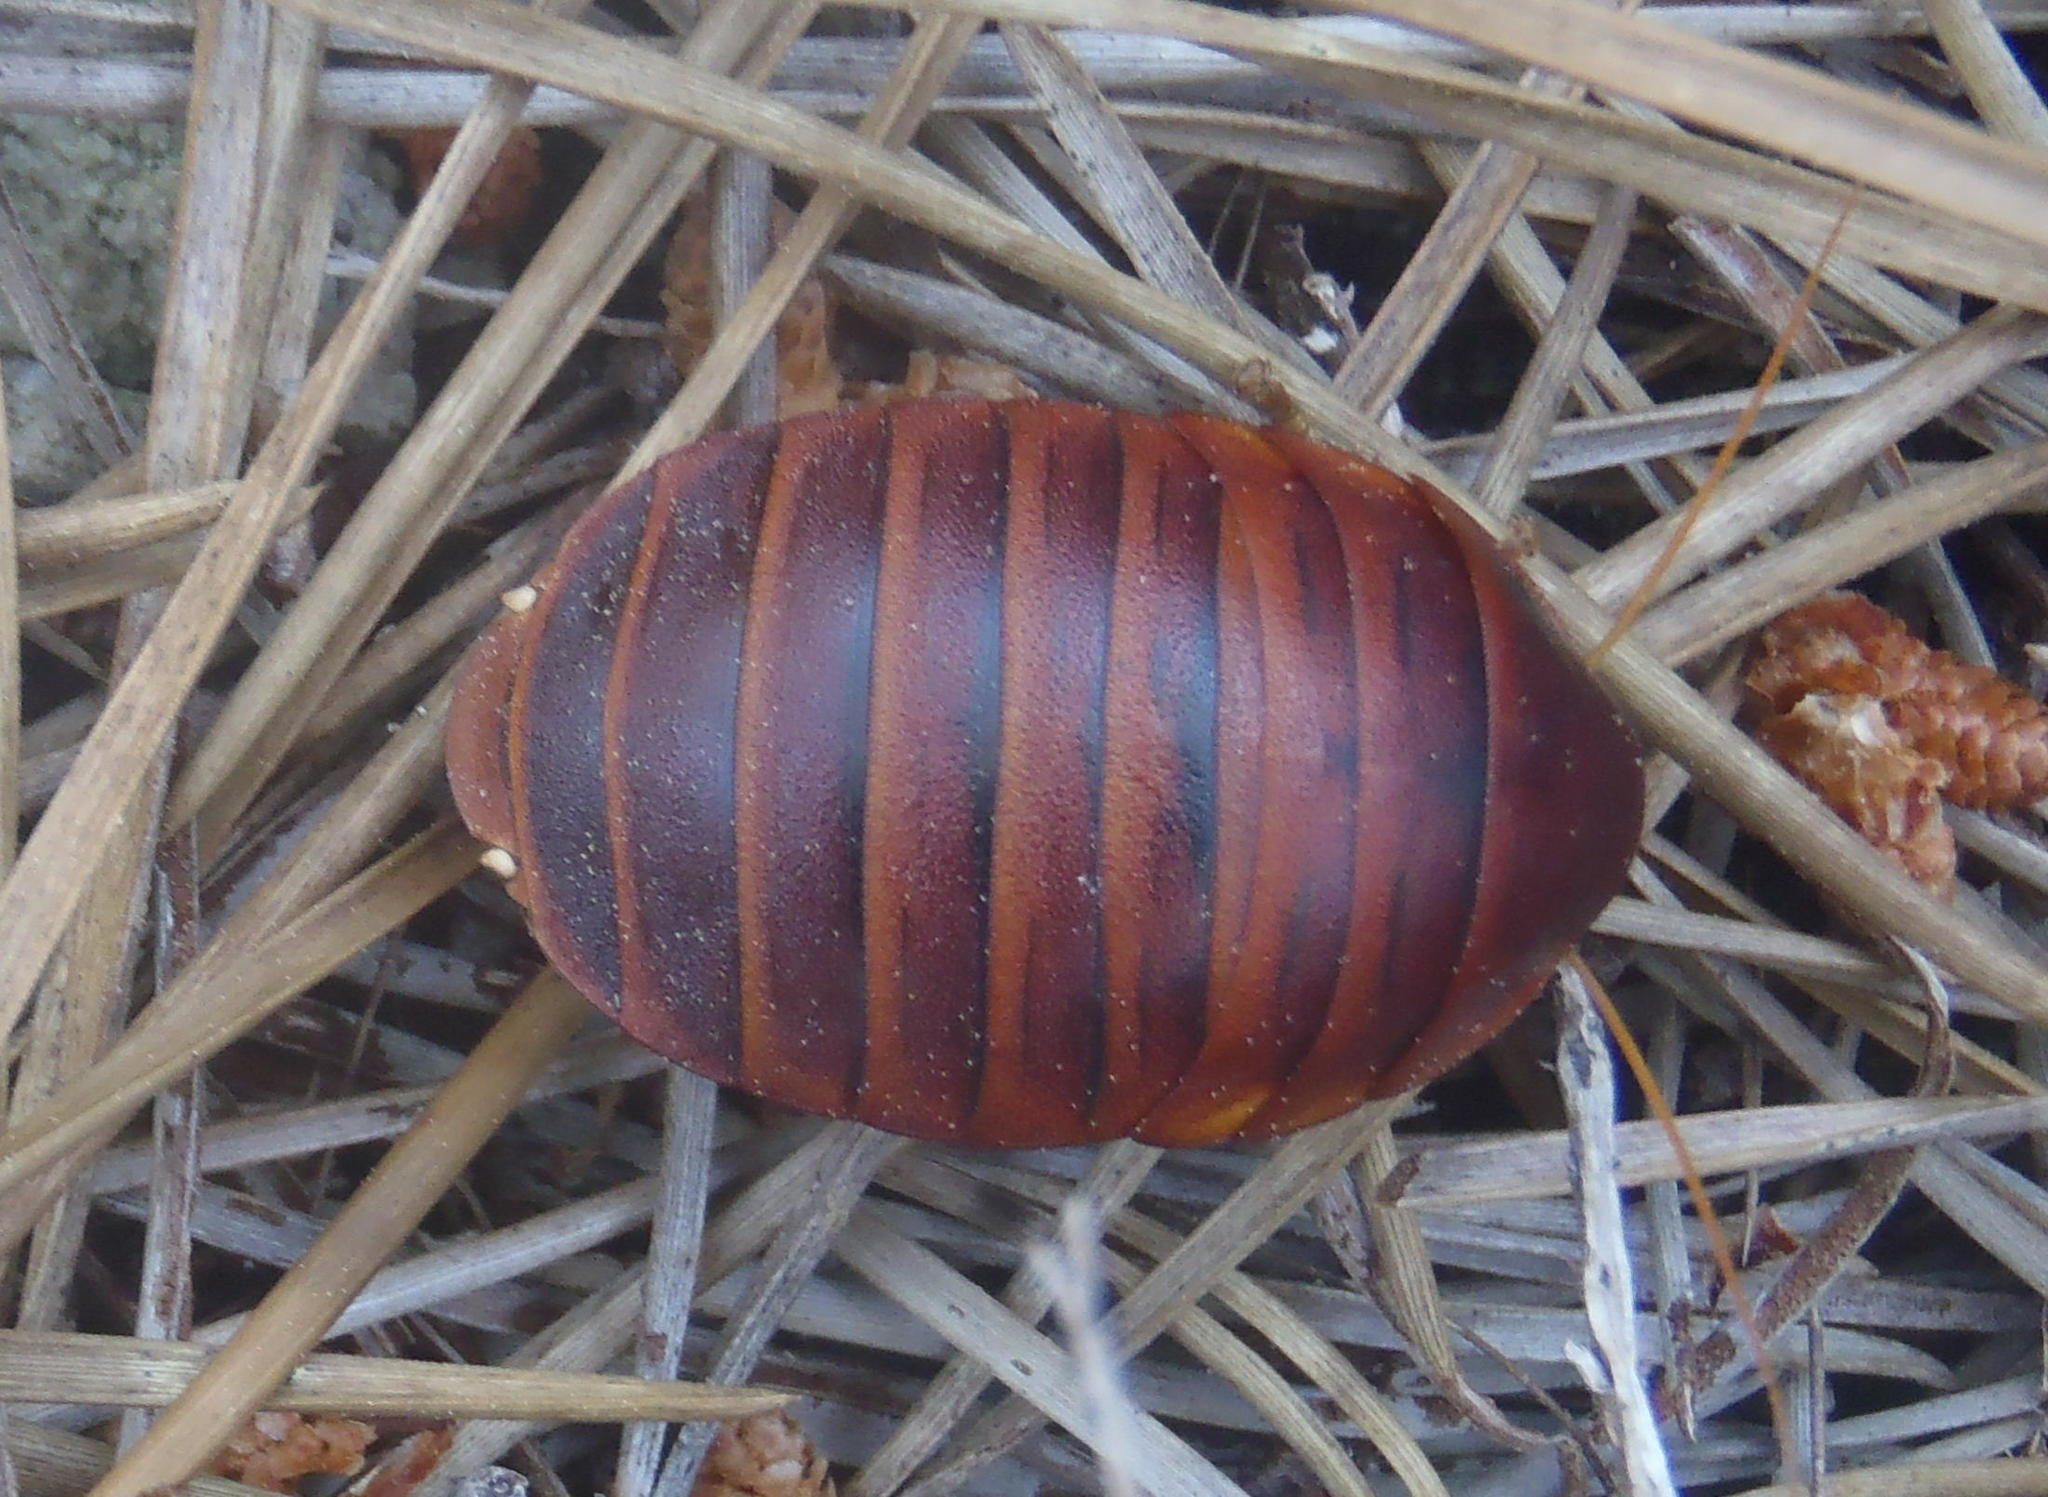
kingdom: Animalia
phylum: Arthropoda
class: Insecta
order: Blattodea
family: Blaberidae
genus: Aptera
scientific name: Aptera fusca
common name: Cape mountain cockroach
